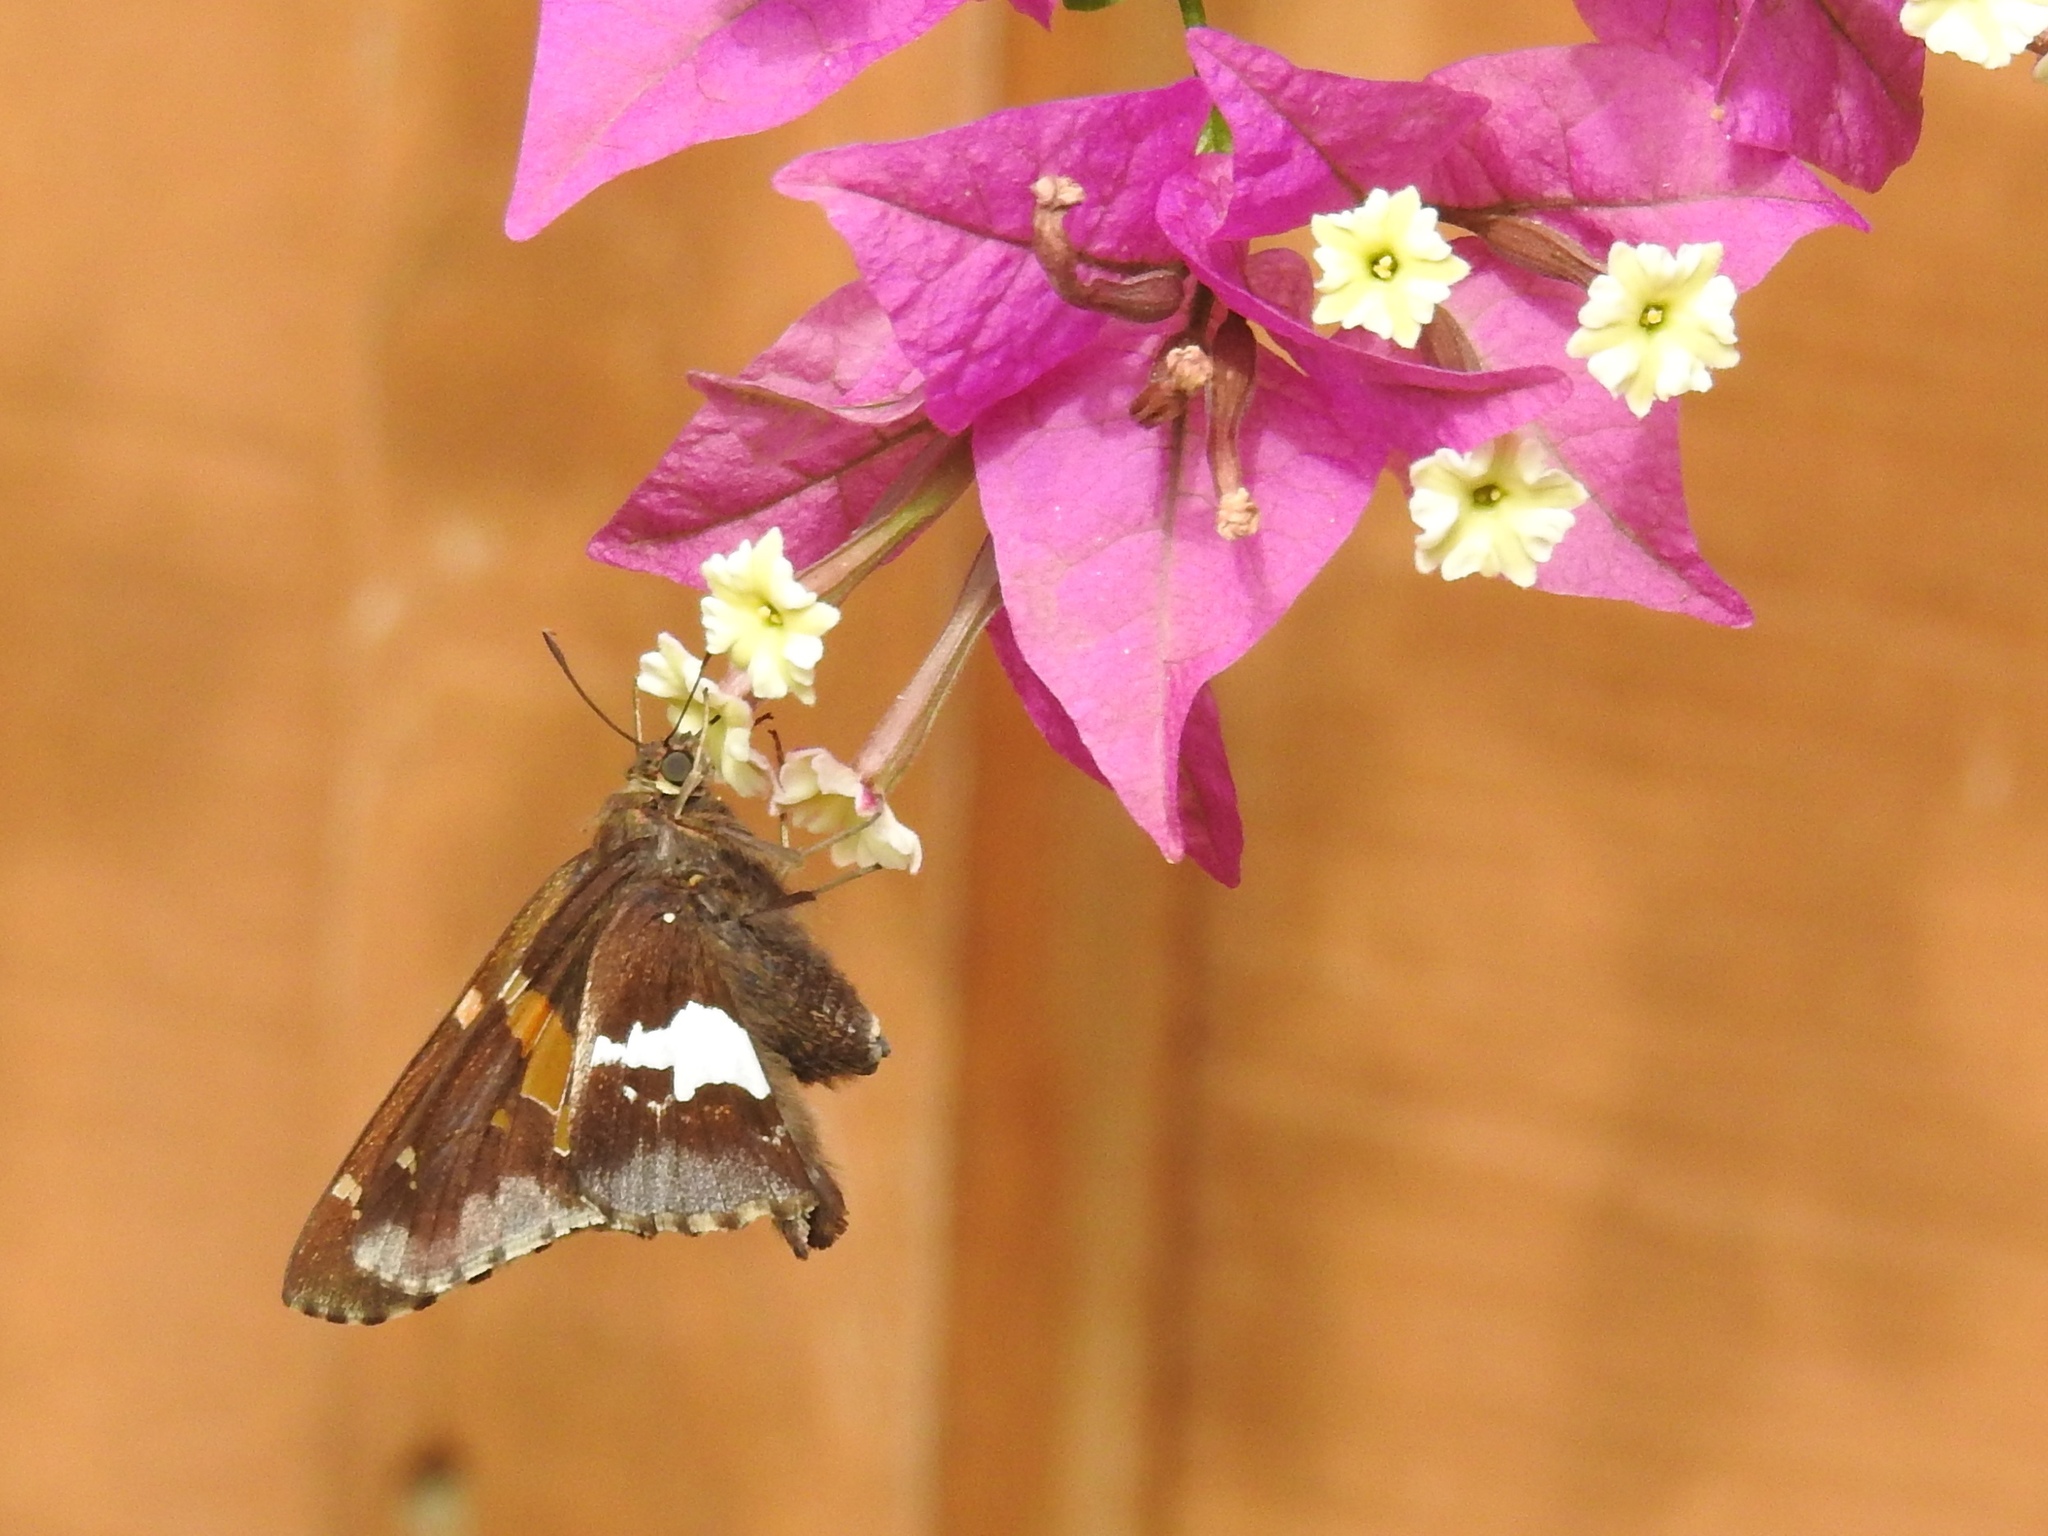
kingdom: Animalia
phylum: Arthropoda
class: Insecta
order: Lepidoptera
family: Hesperiidae
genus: Epargyreus
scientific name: Epargyreus clarus
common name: Silver-spotted skipper
